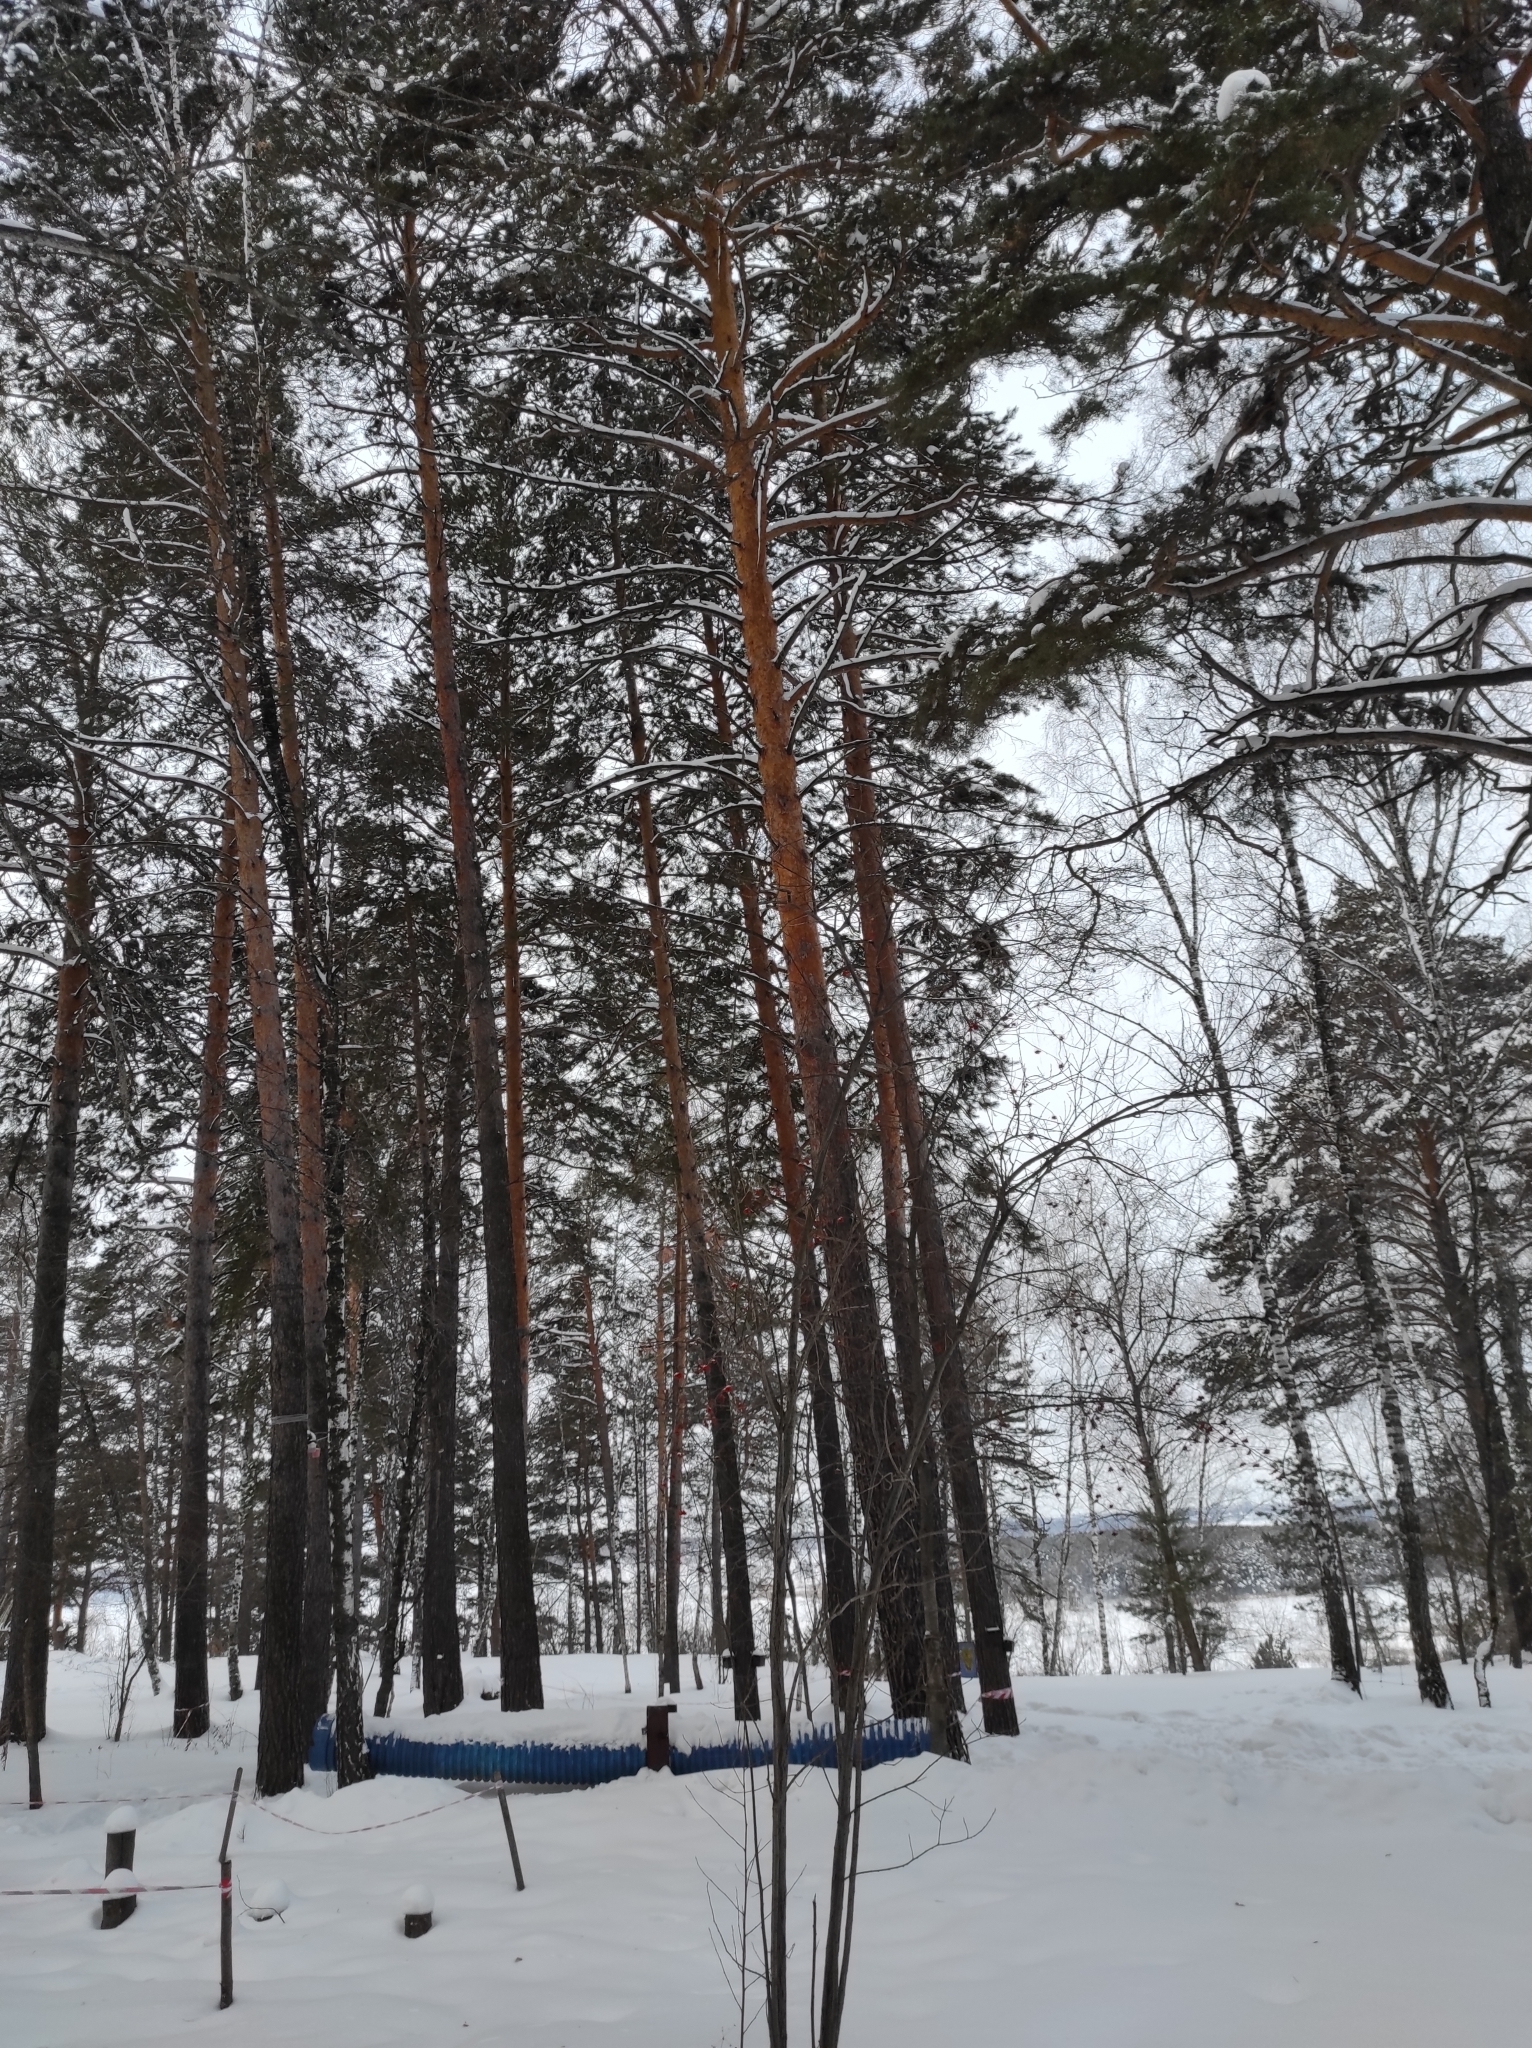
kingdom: Plantae
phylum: Tracheophyta
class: Pinopsida
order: Pinales
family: Pinaceae
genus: Pinus
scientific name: Pinus sylvestris
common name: Scots pine
